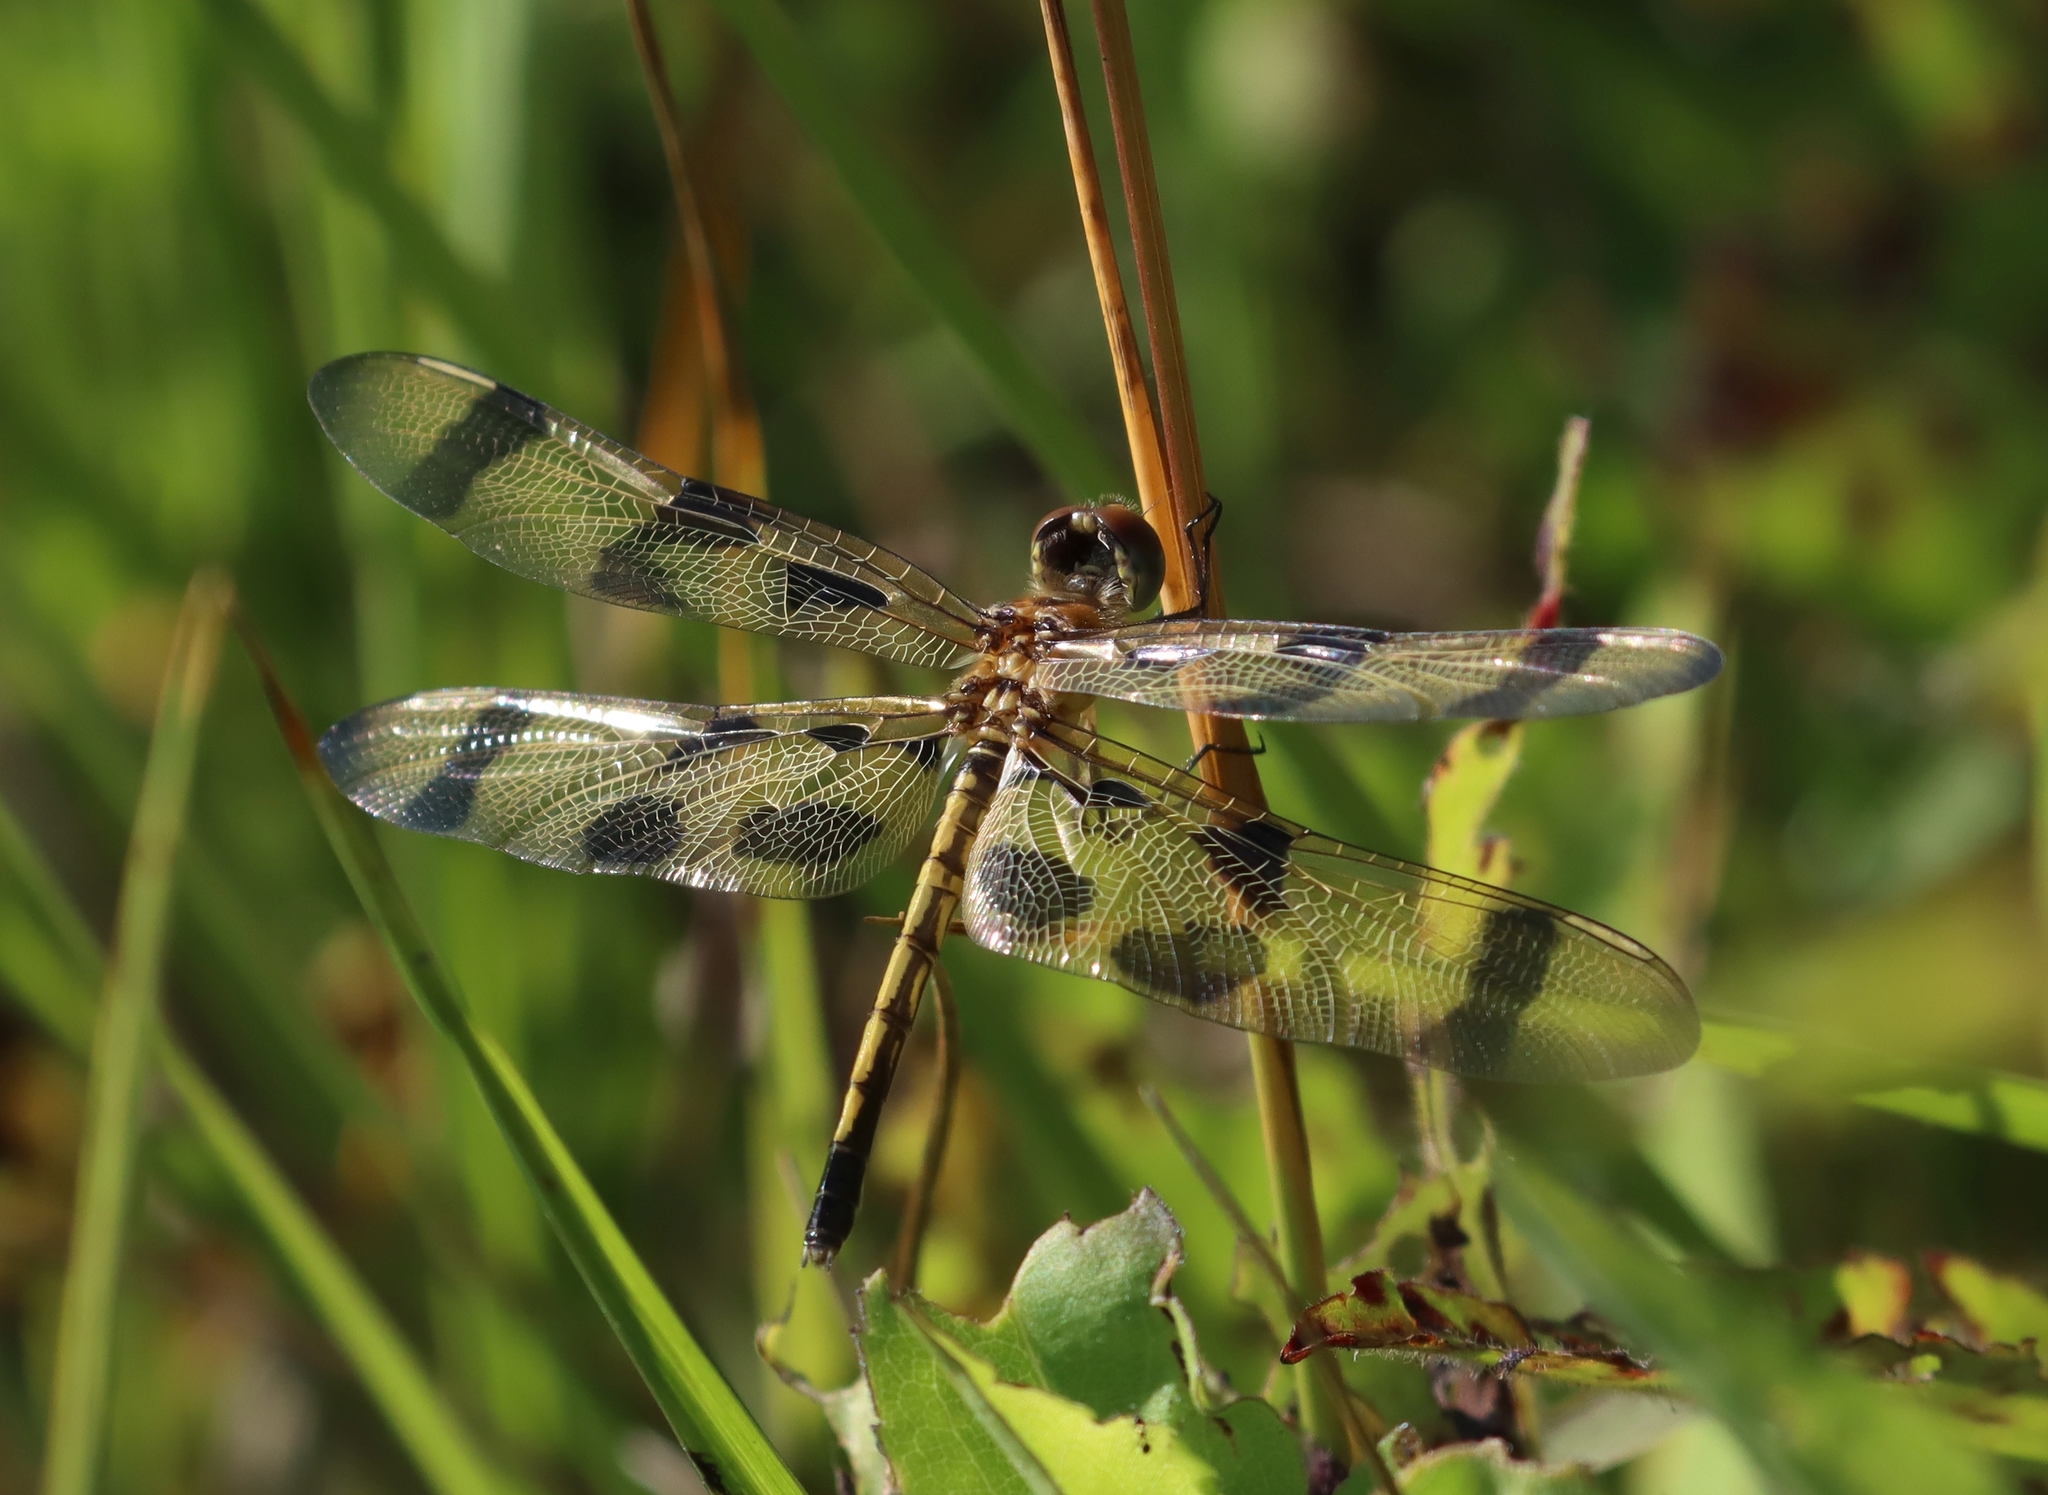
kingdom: Animalia
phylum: Arthropoda
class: Insecta
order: Odonata
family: Libellulidae
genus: Celithemis
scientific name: Celithemis eponina
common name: Halloween pennant
